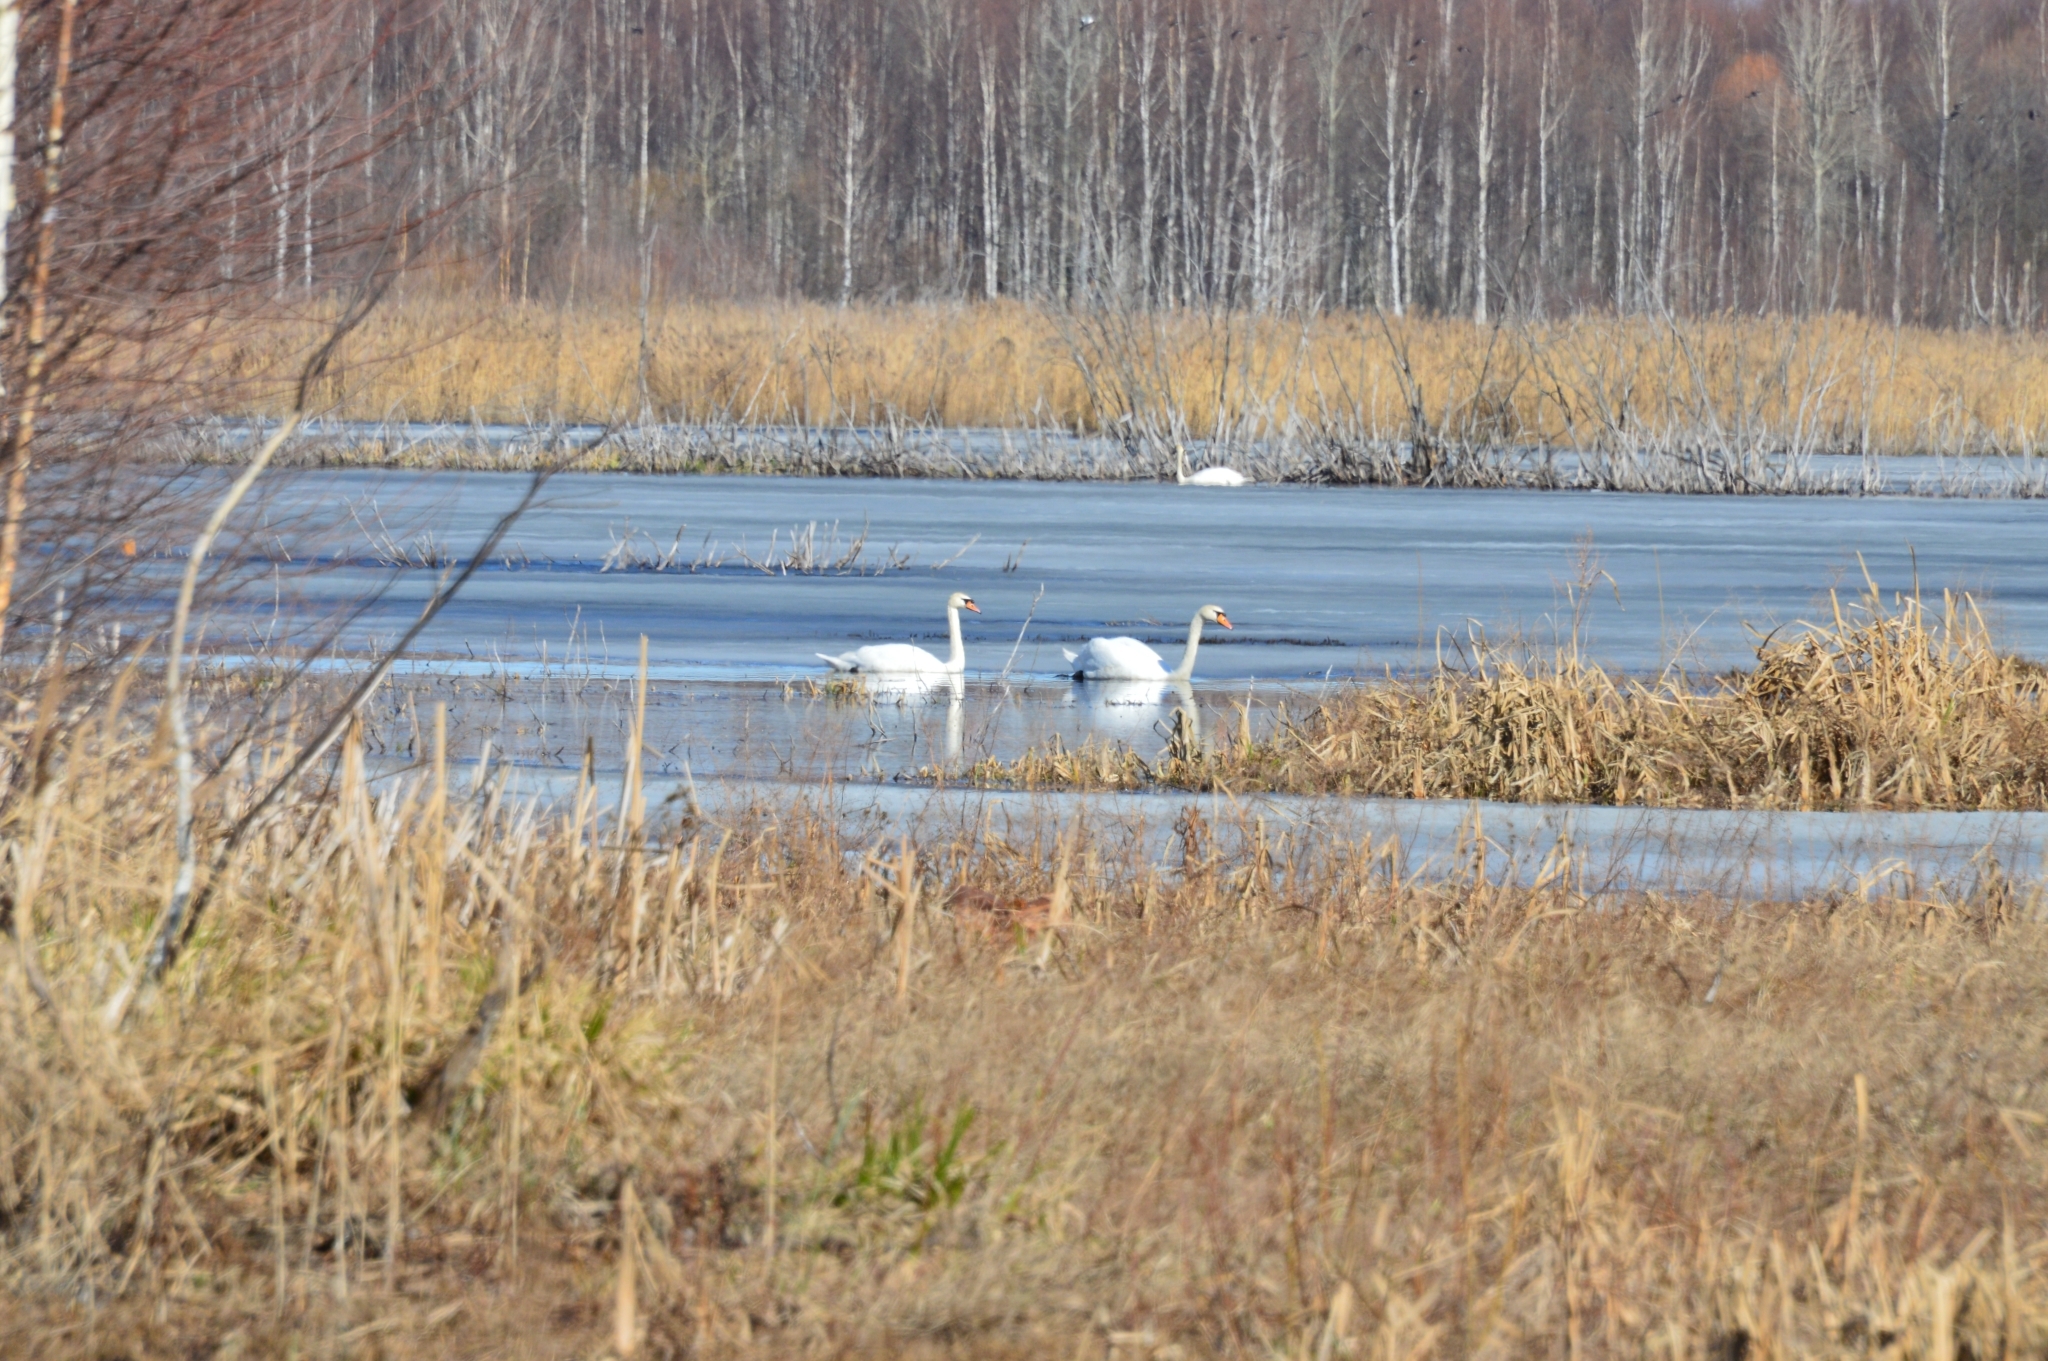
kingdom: Animalia
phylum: Chordata
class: Aves
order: Anseriformes
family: Anatidae
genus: Cygnus
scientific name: Cygnus olor
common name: Mute swan
